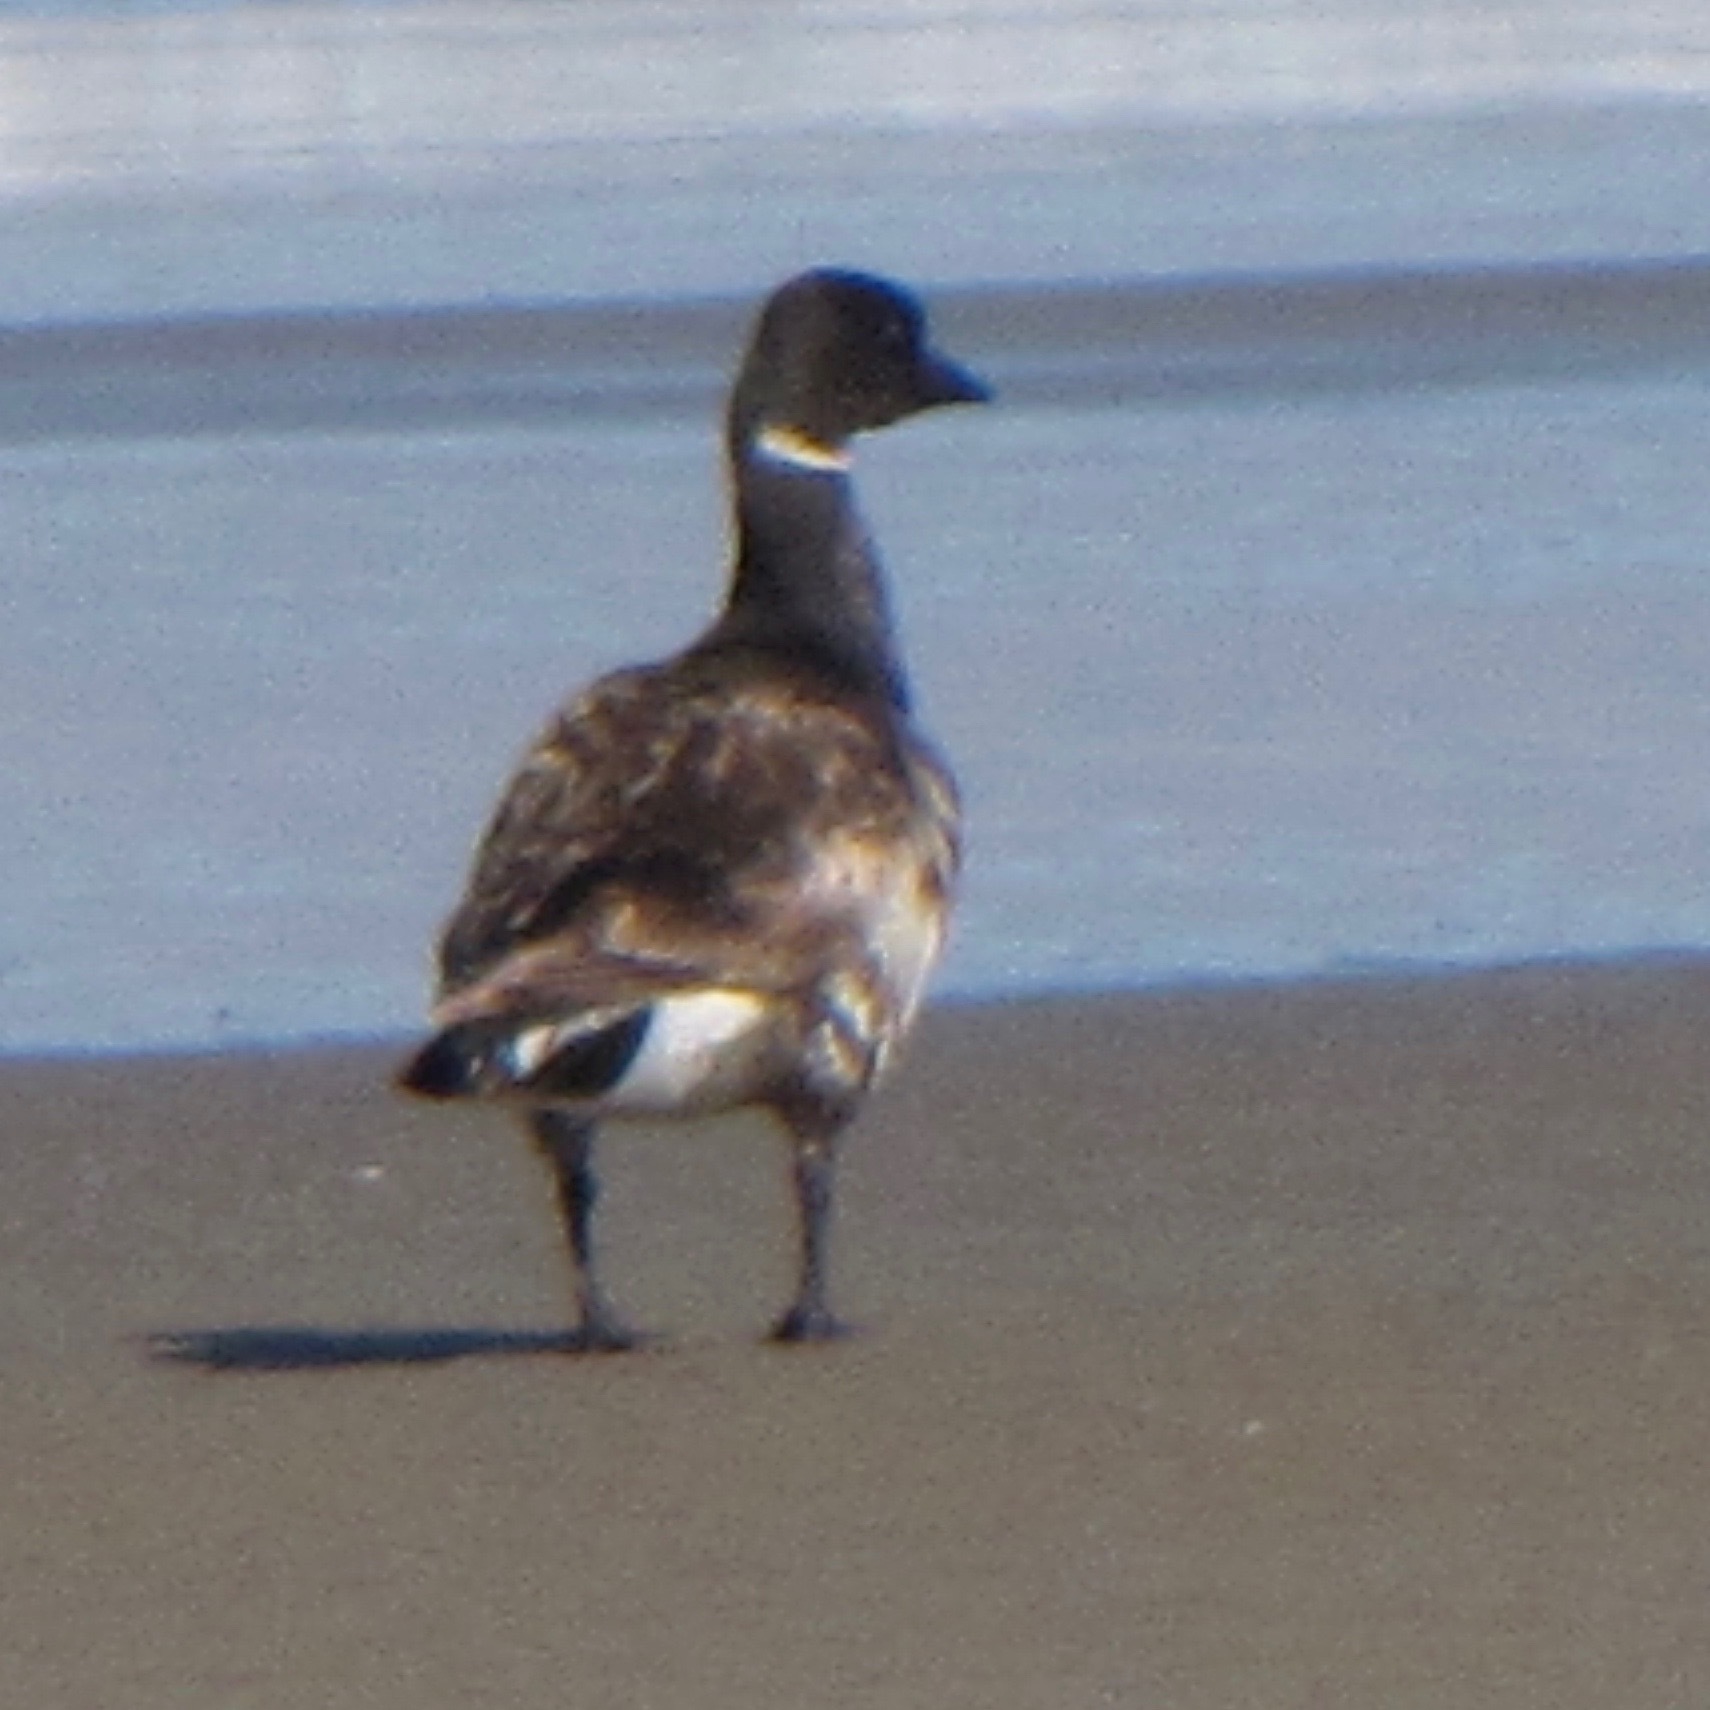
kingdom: Animalia
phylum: Chordata
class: Aves
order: Anseriformes
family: Anatidae
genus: Branta
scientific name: Branta bernicla
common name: Brant goose
